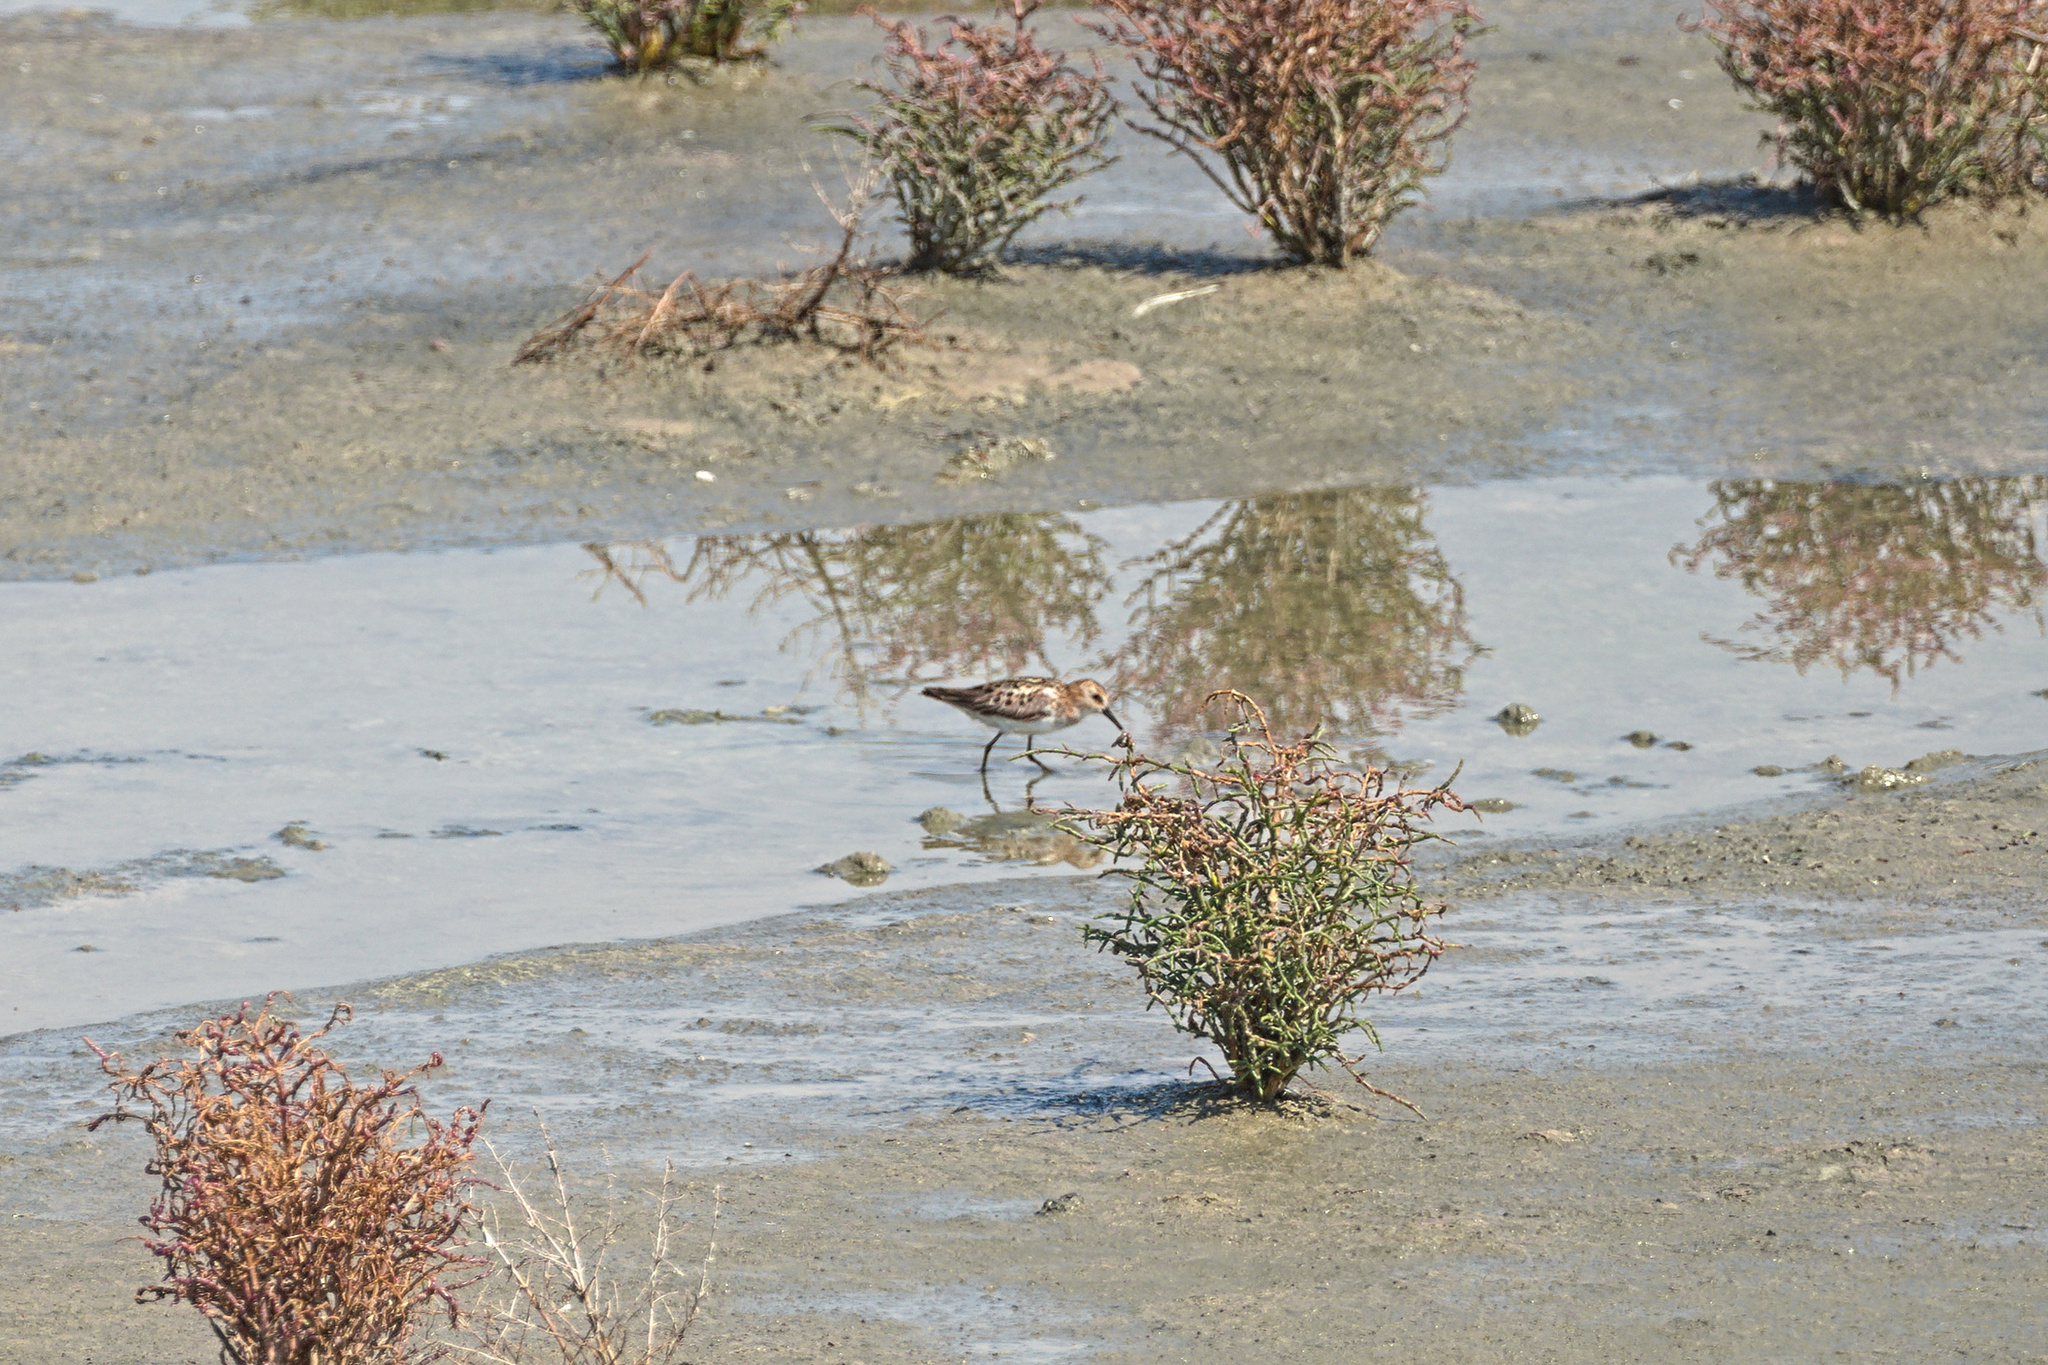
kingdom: Animalia
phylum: Chordata
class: Aves
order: Charadriiformes
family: Scolopacidae
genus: Calidris
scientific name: Calidris minuta
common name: Little stint
